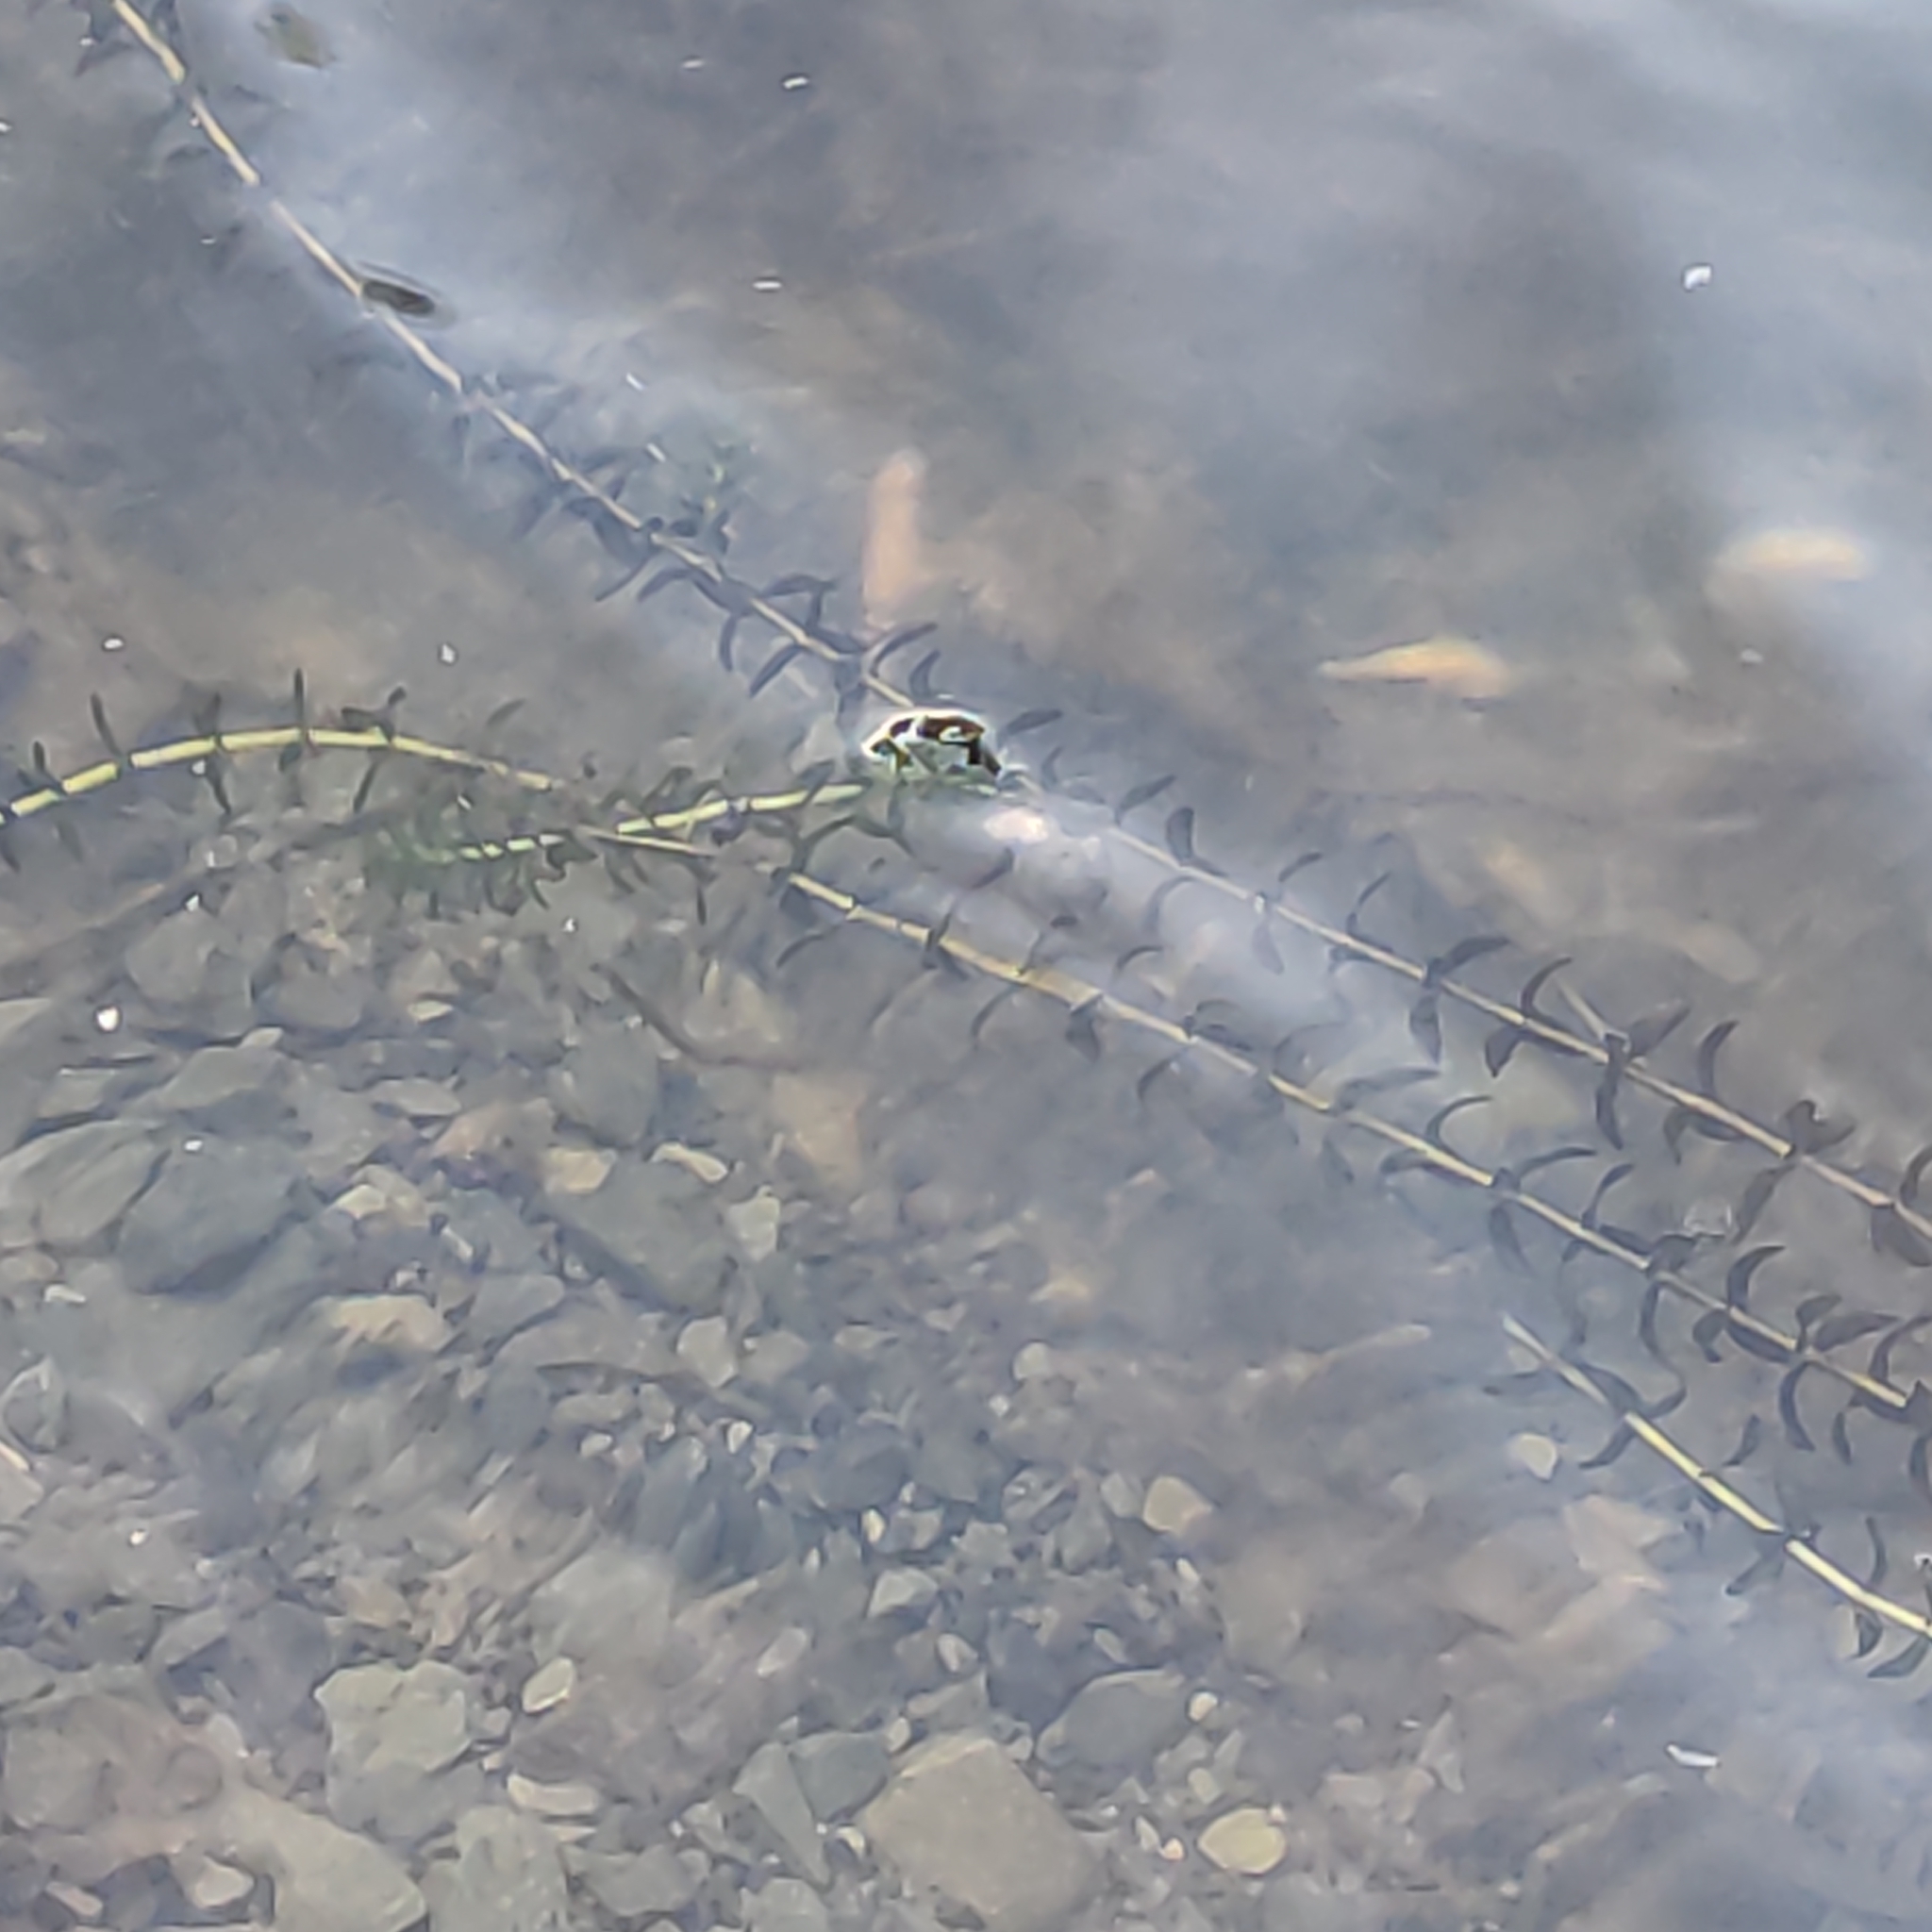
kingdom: Plantae
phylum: Tracheophyta
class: Liliopsida
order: Alismatales
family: Hydrocharitaceae
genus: Elodea
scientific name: Elodea canadensis
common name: Canadian waterweed
